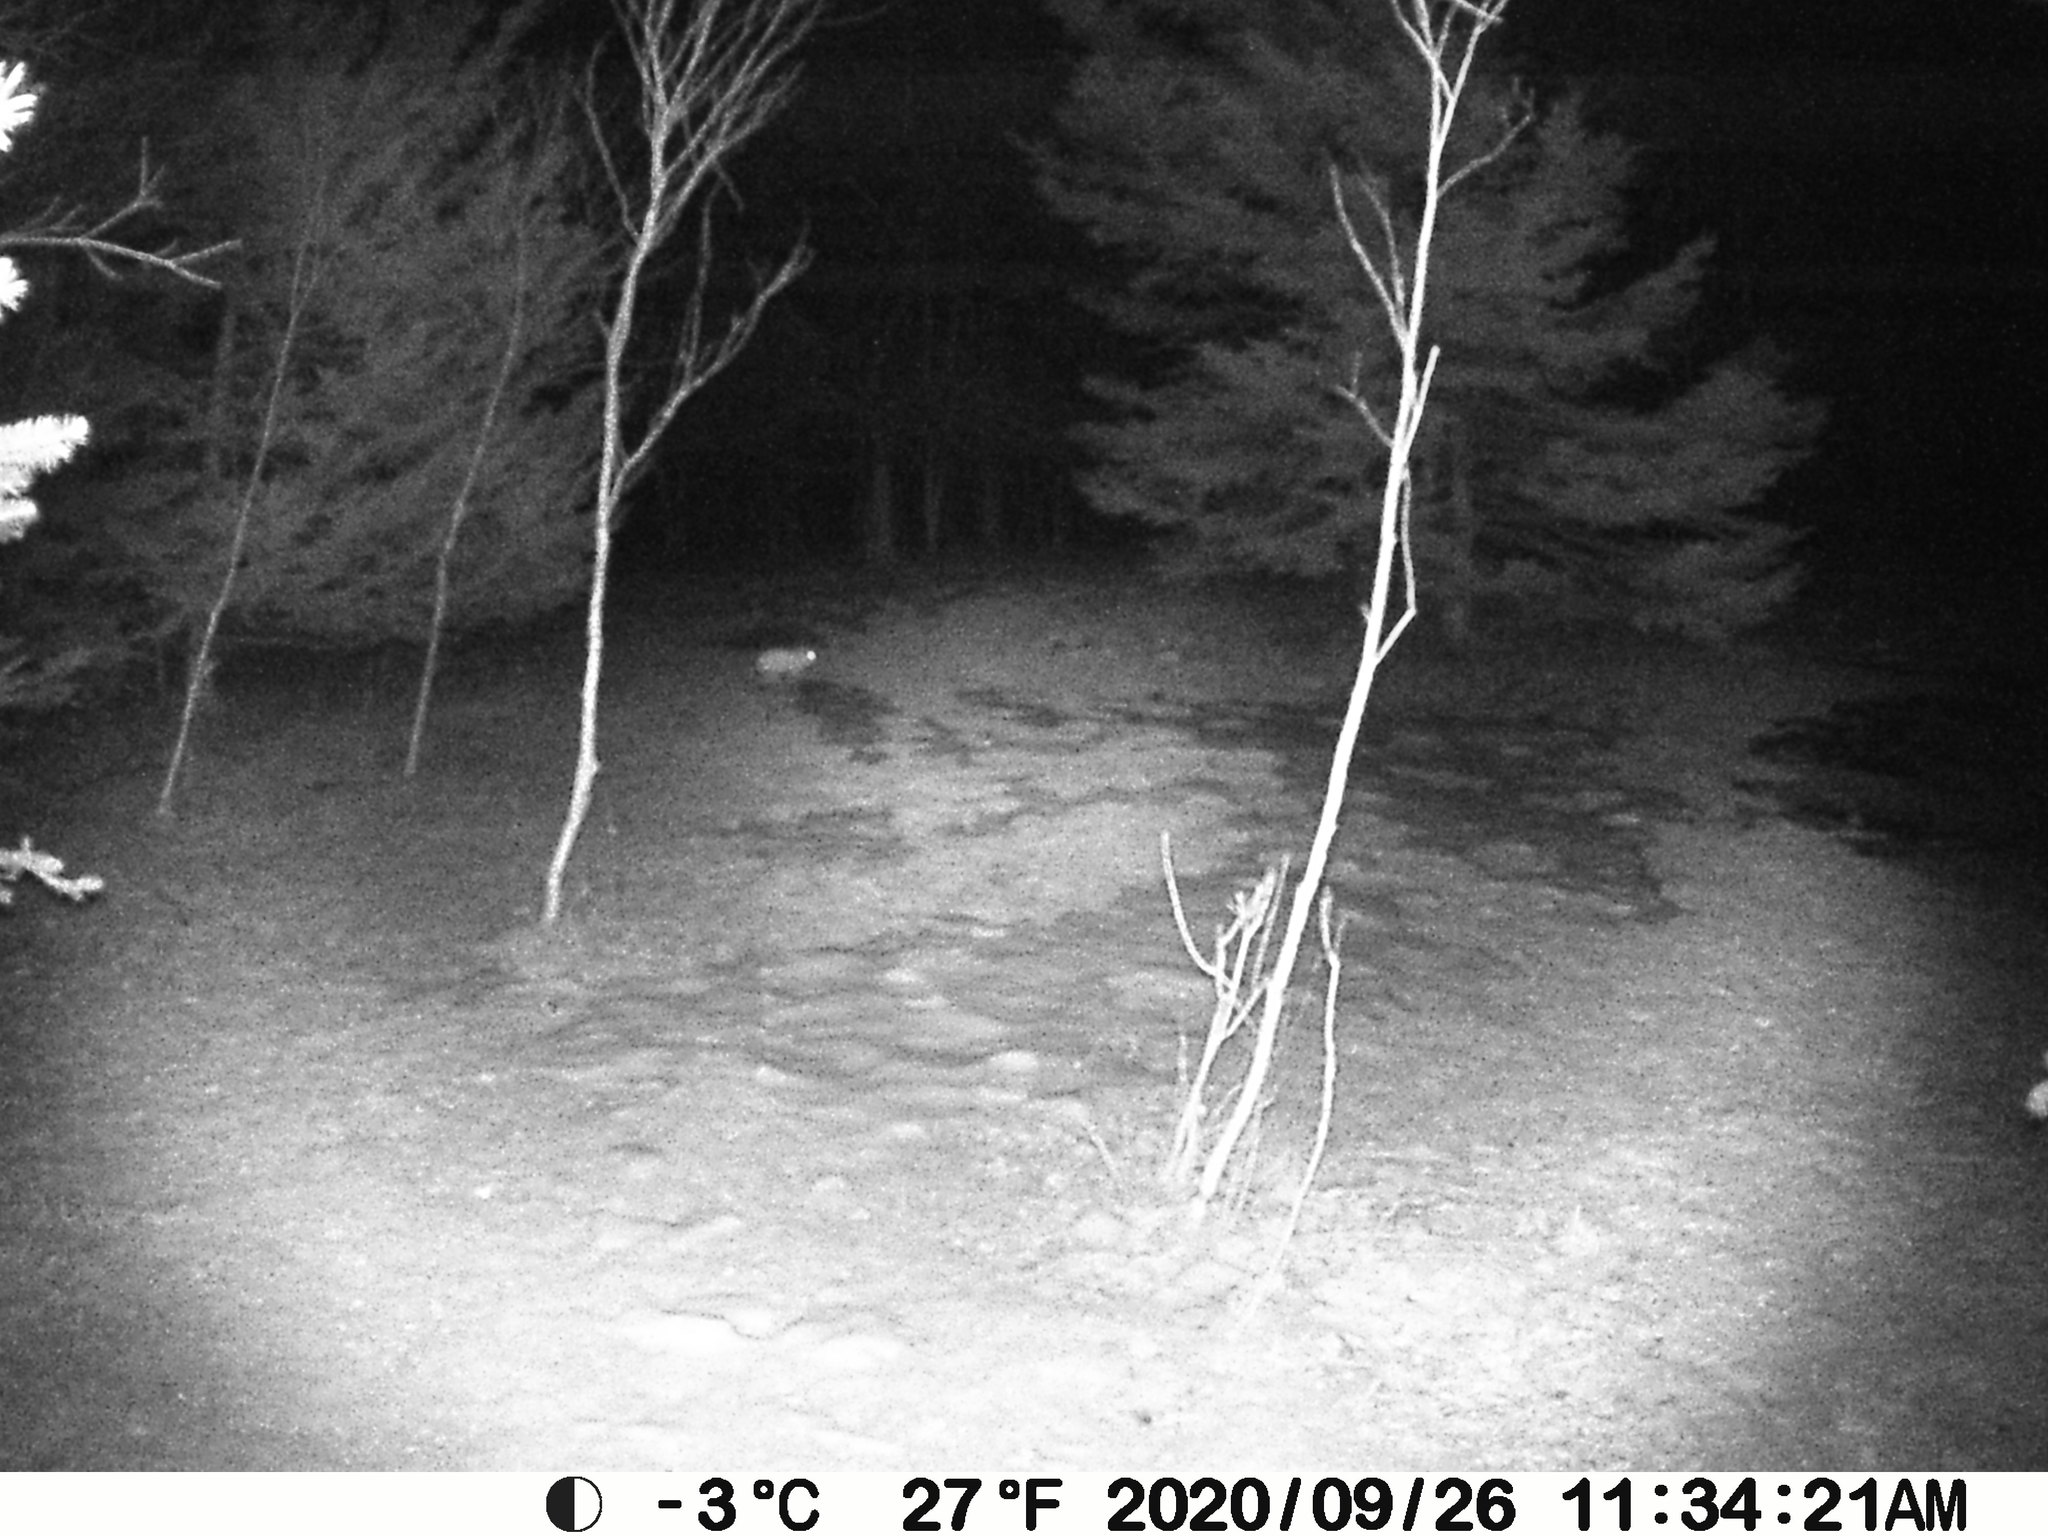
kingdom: Animalia
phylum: Chordata
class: Mammalia
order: Lagomorpha
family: Leporidae
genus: Lepus
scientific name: Lepus americanus
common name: Snowshoe hare
